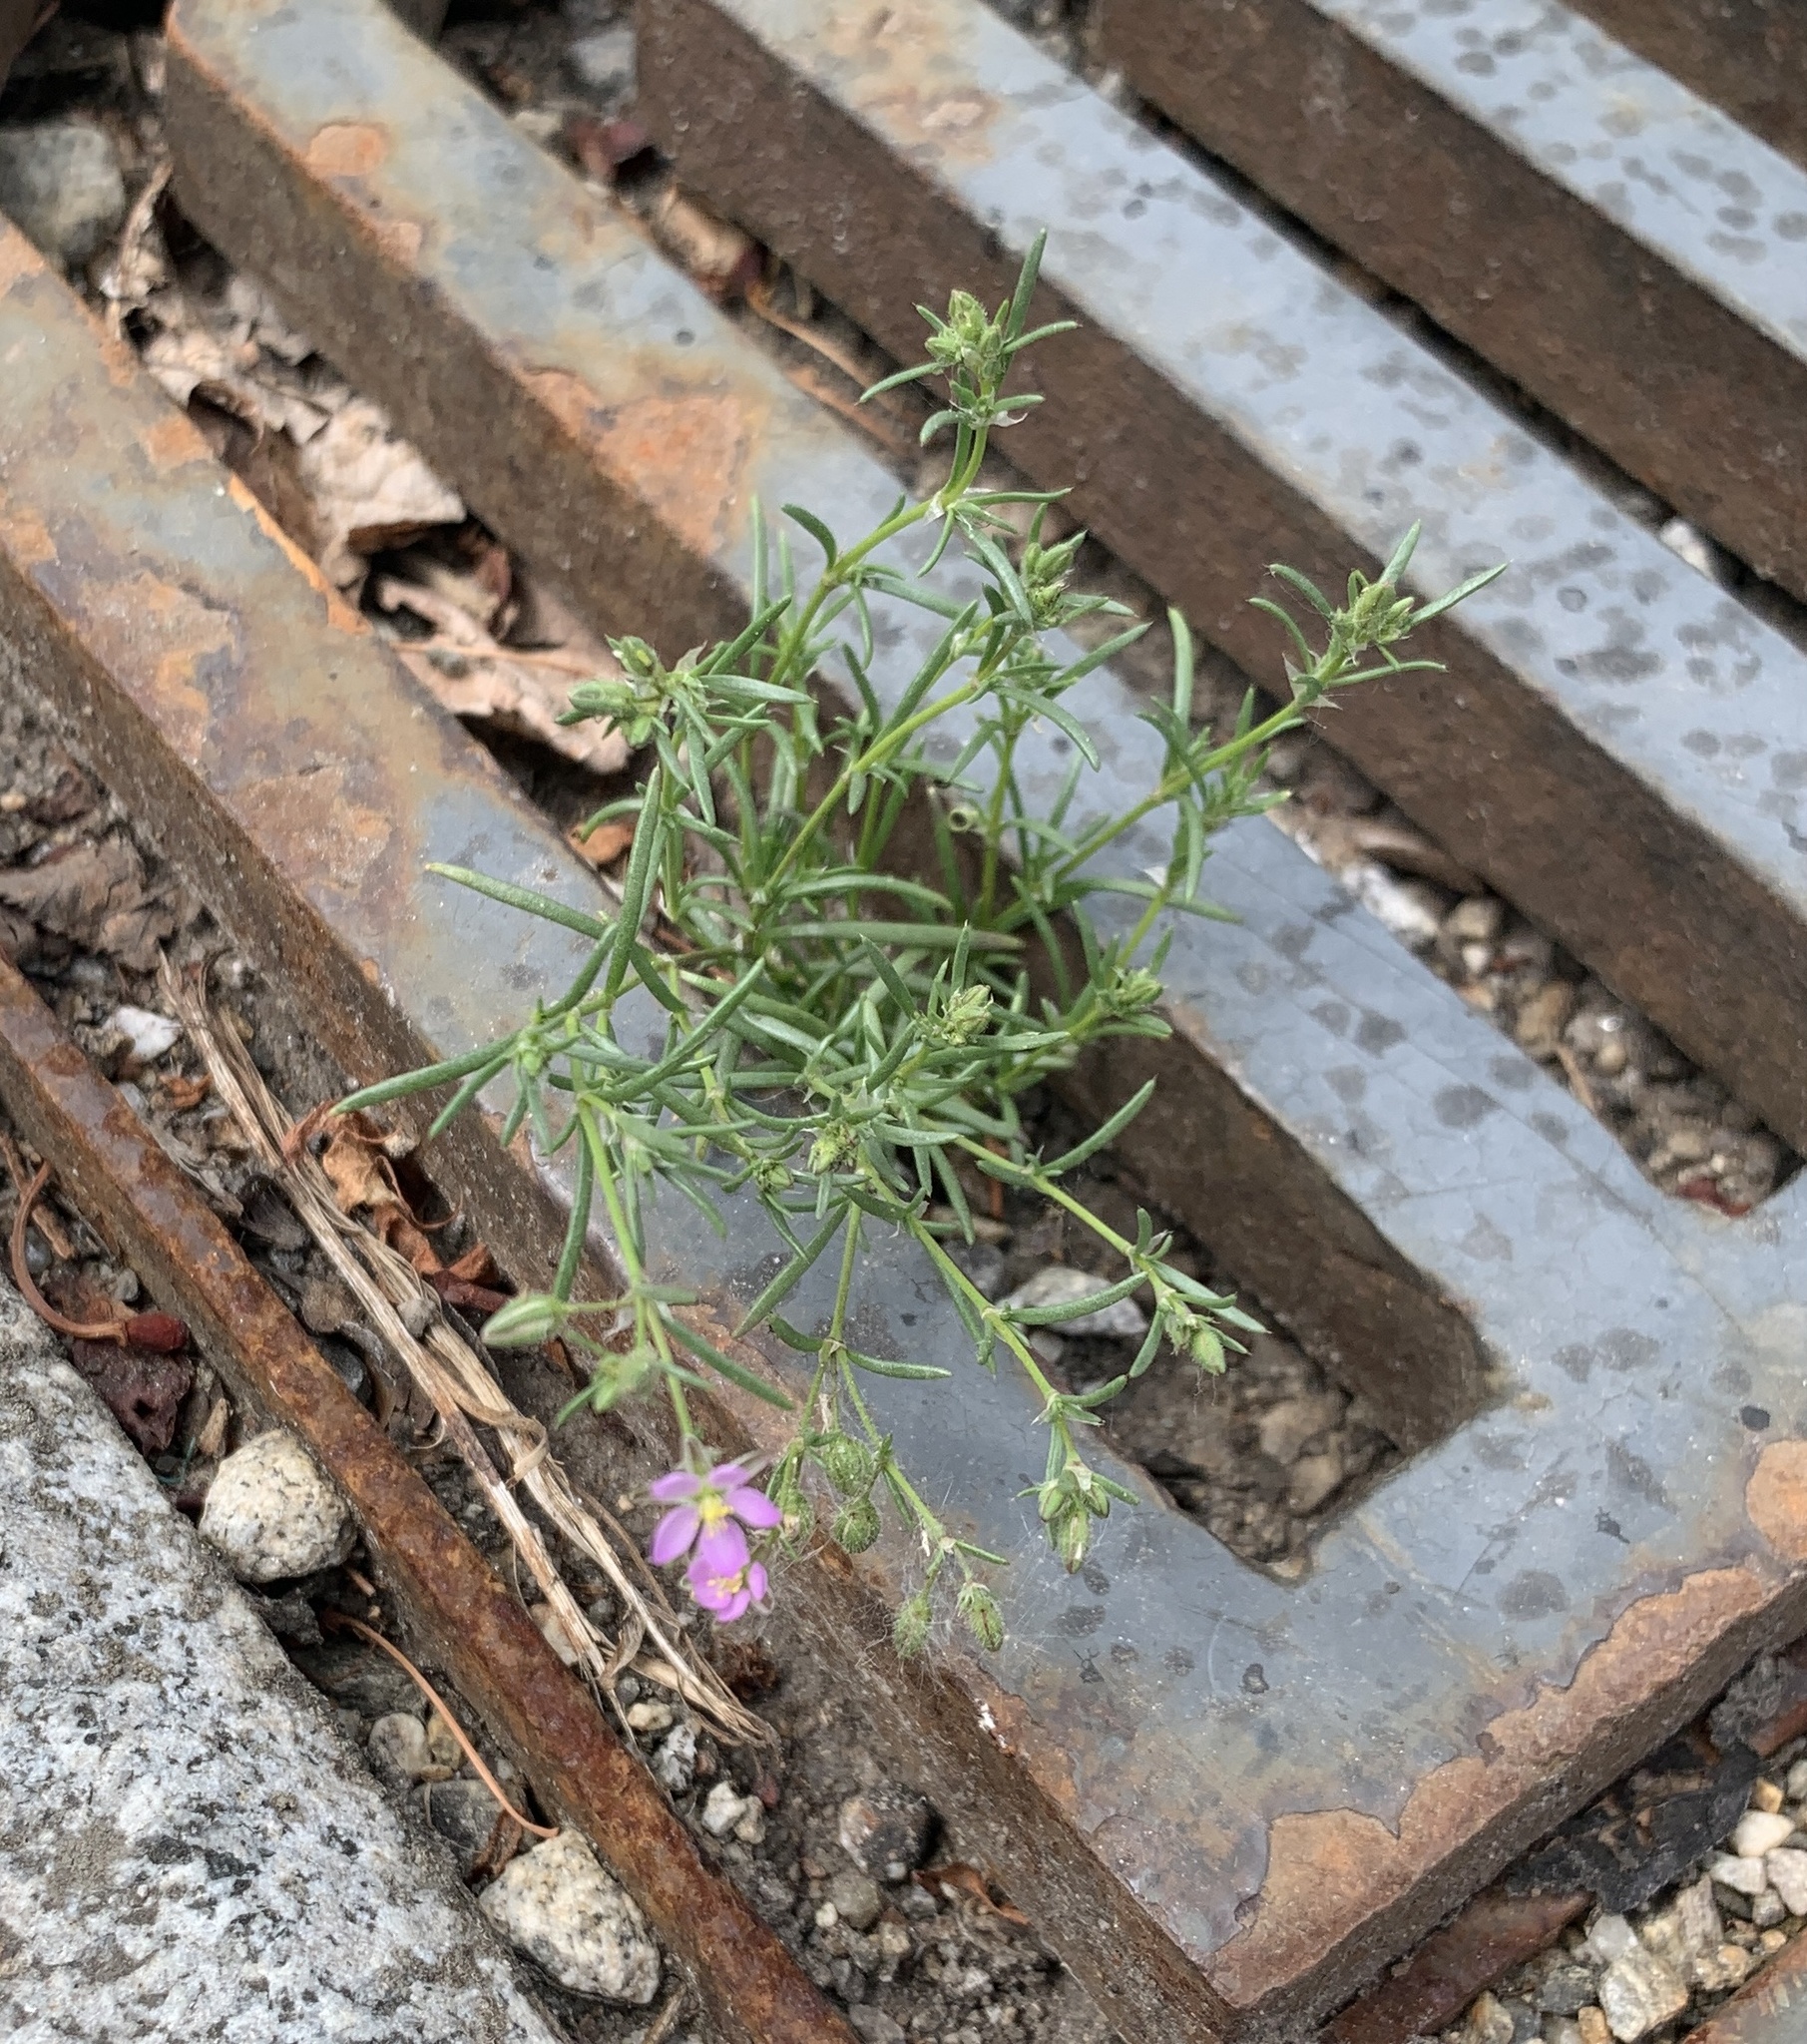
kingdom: Plantae
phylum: Tracheophyta
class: Magnoliopsida
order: Caryophyllales
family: Caryophyllaceae
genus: Spergularia
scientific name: Spergularia rubra
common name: Red sand-spurrey
